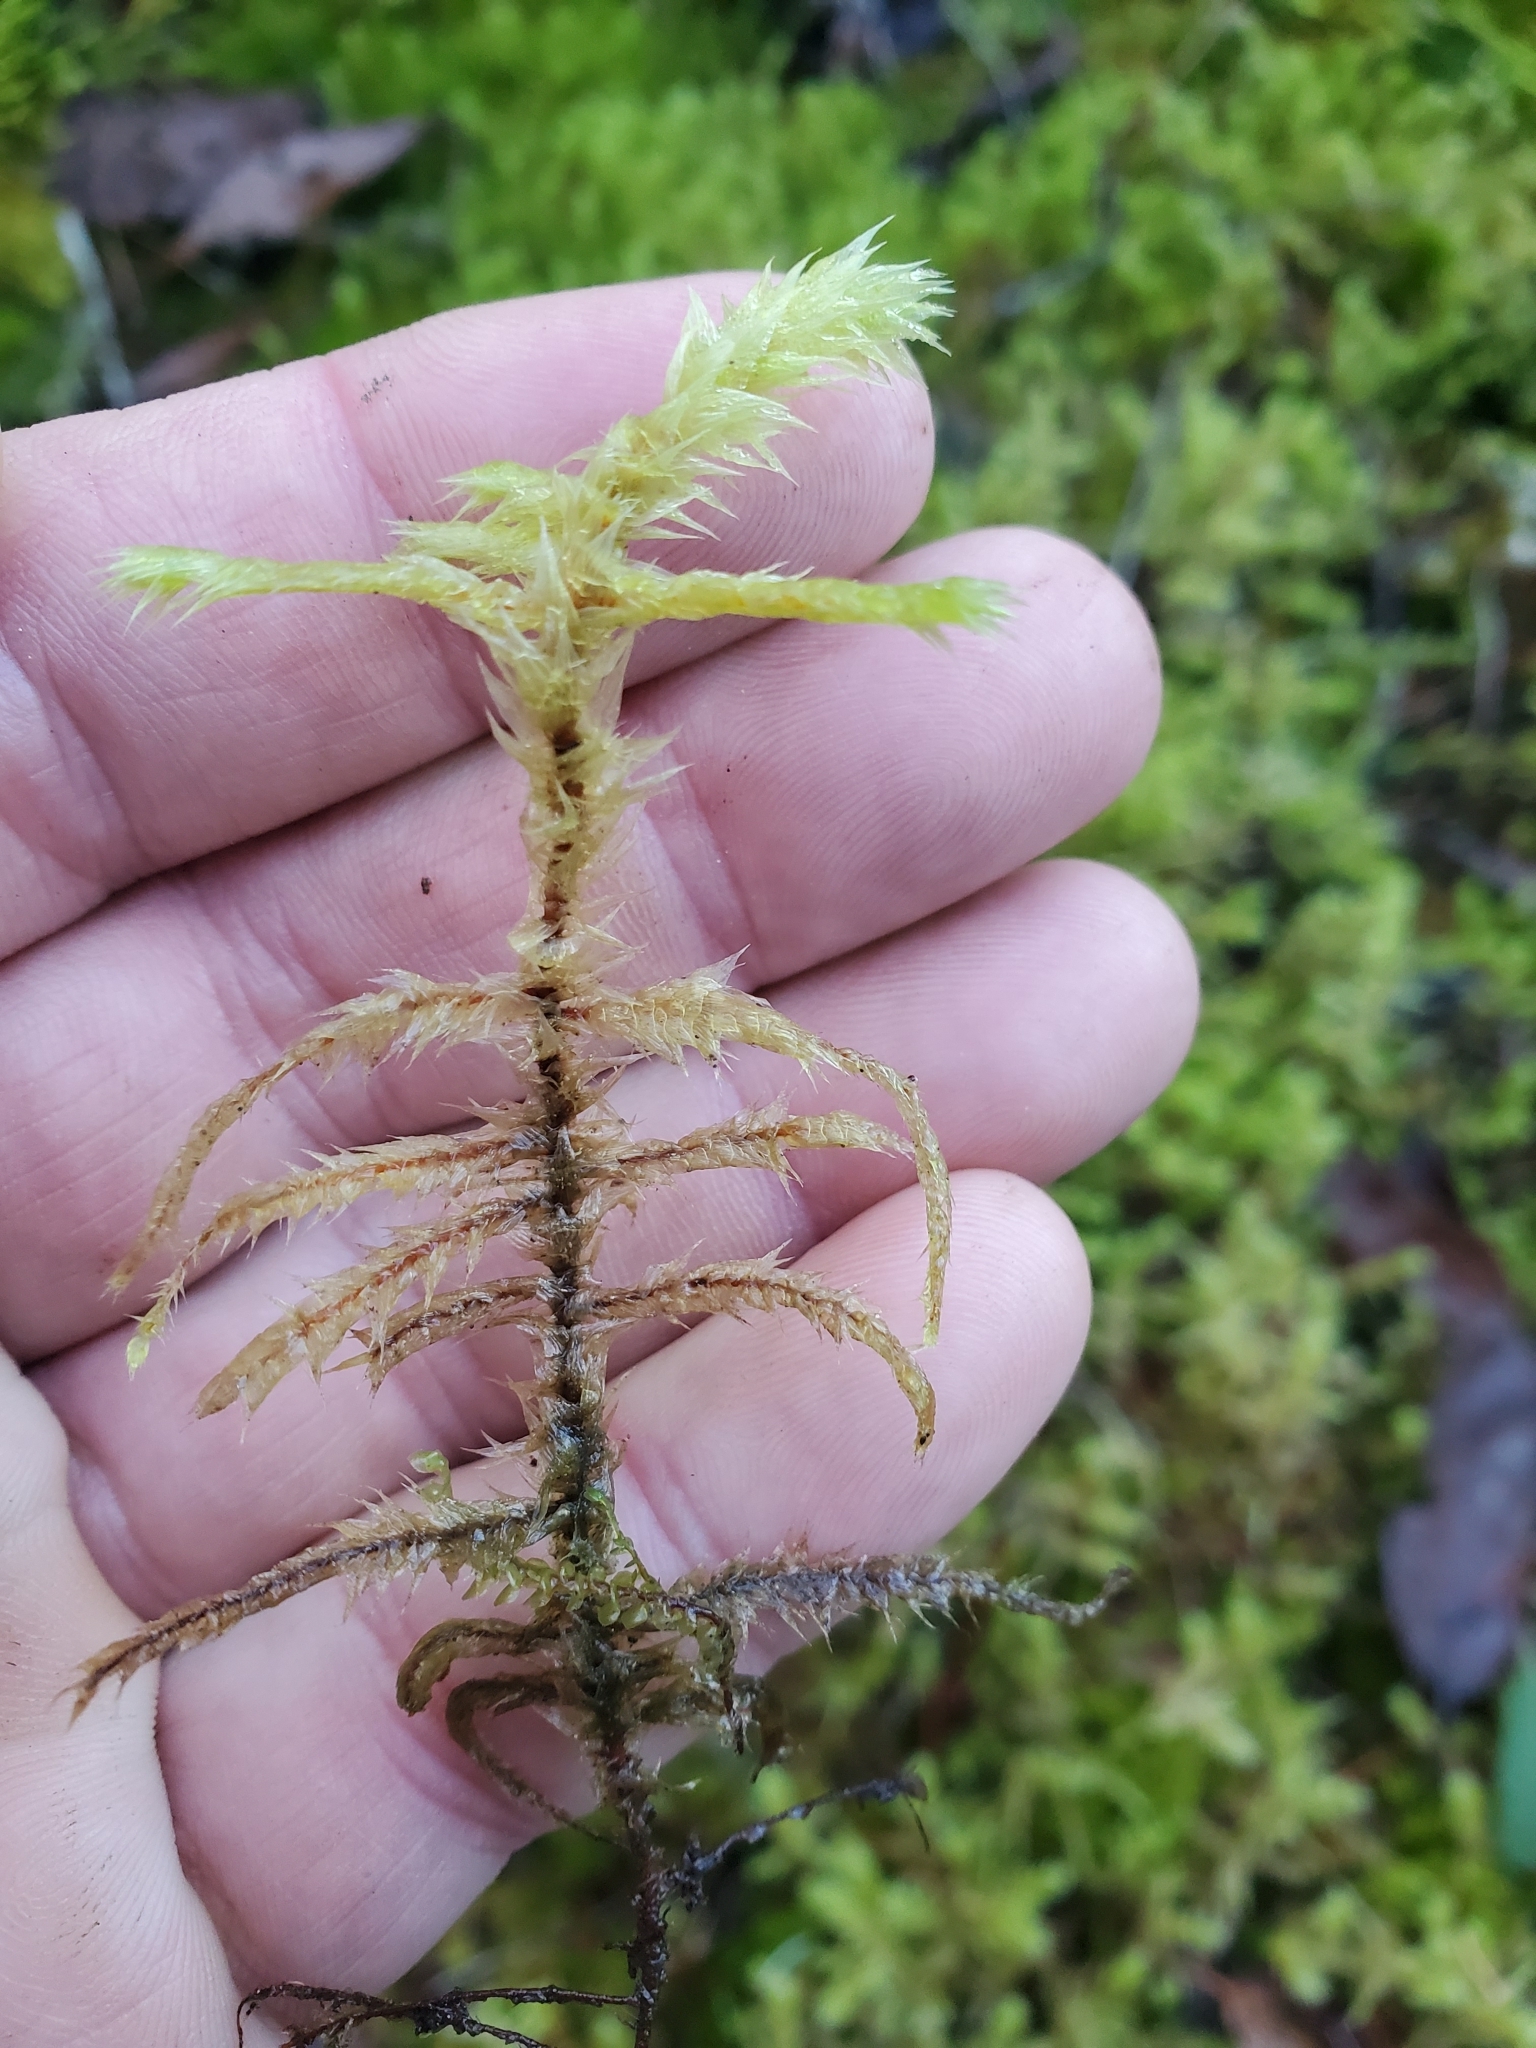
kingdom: Plantae
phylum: Bryophyta
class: Bryopsida
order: Hypnales
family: Hylocomiaceae
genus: Hylocomiadelphus
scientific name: Hylocomiadelphus triquetrus
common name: Rough goose neck moss
